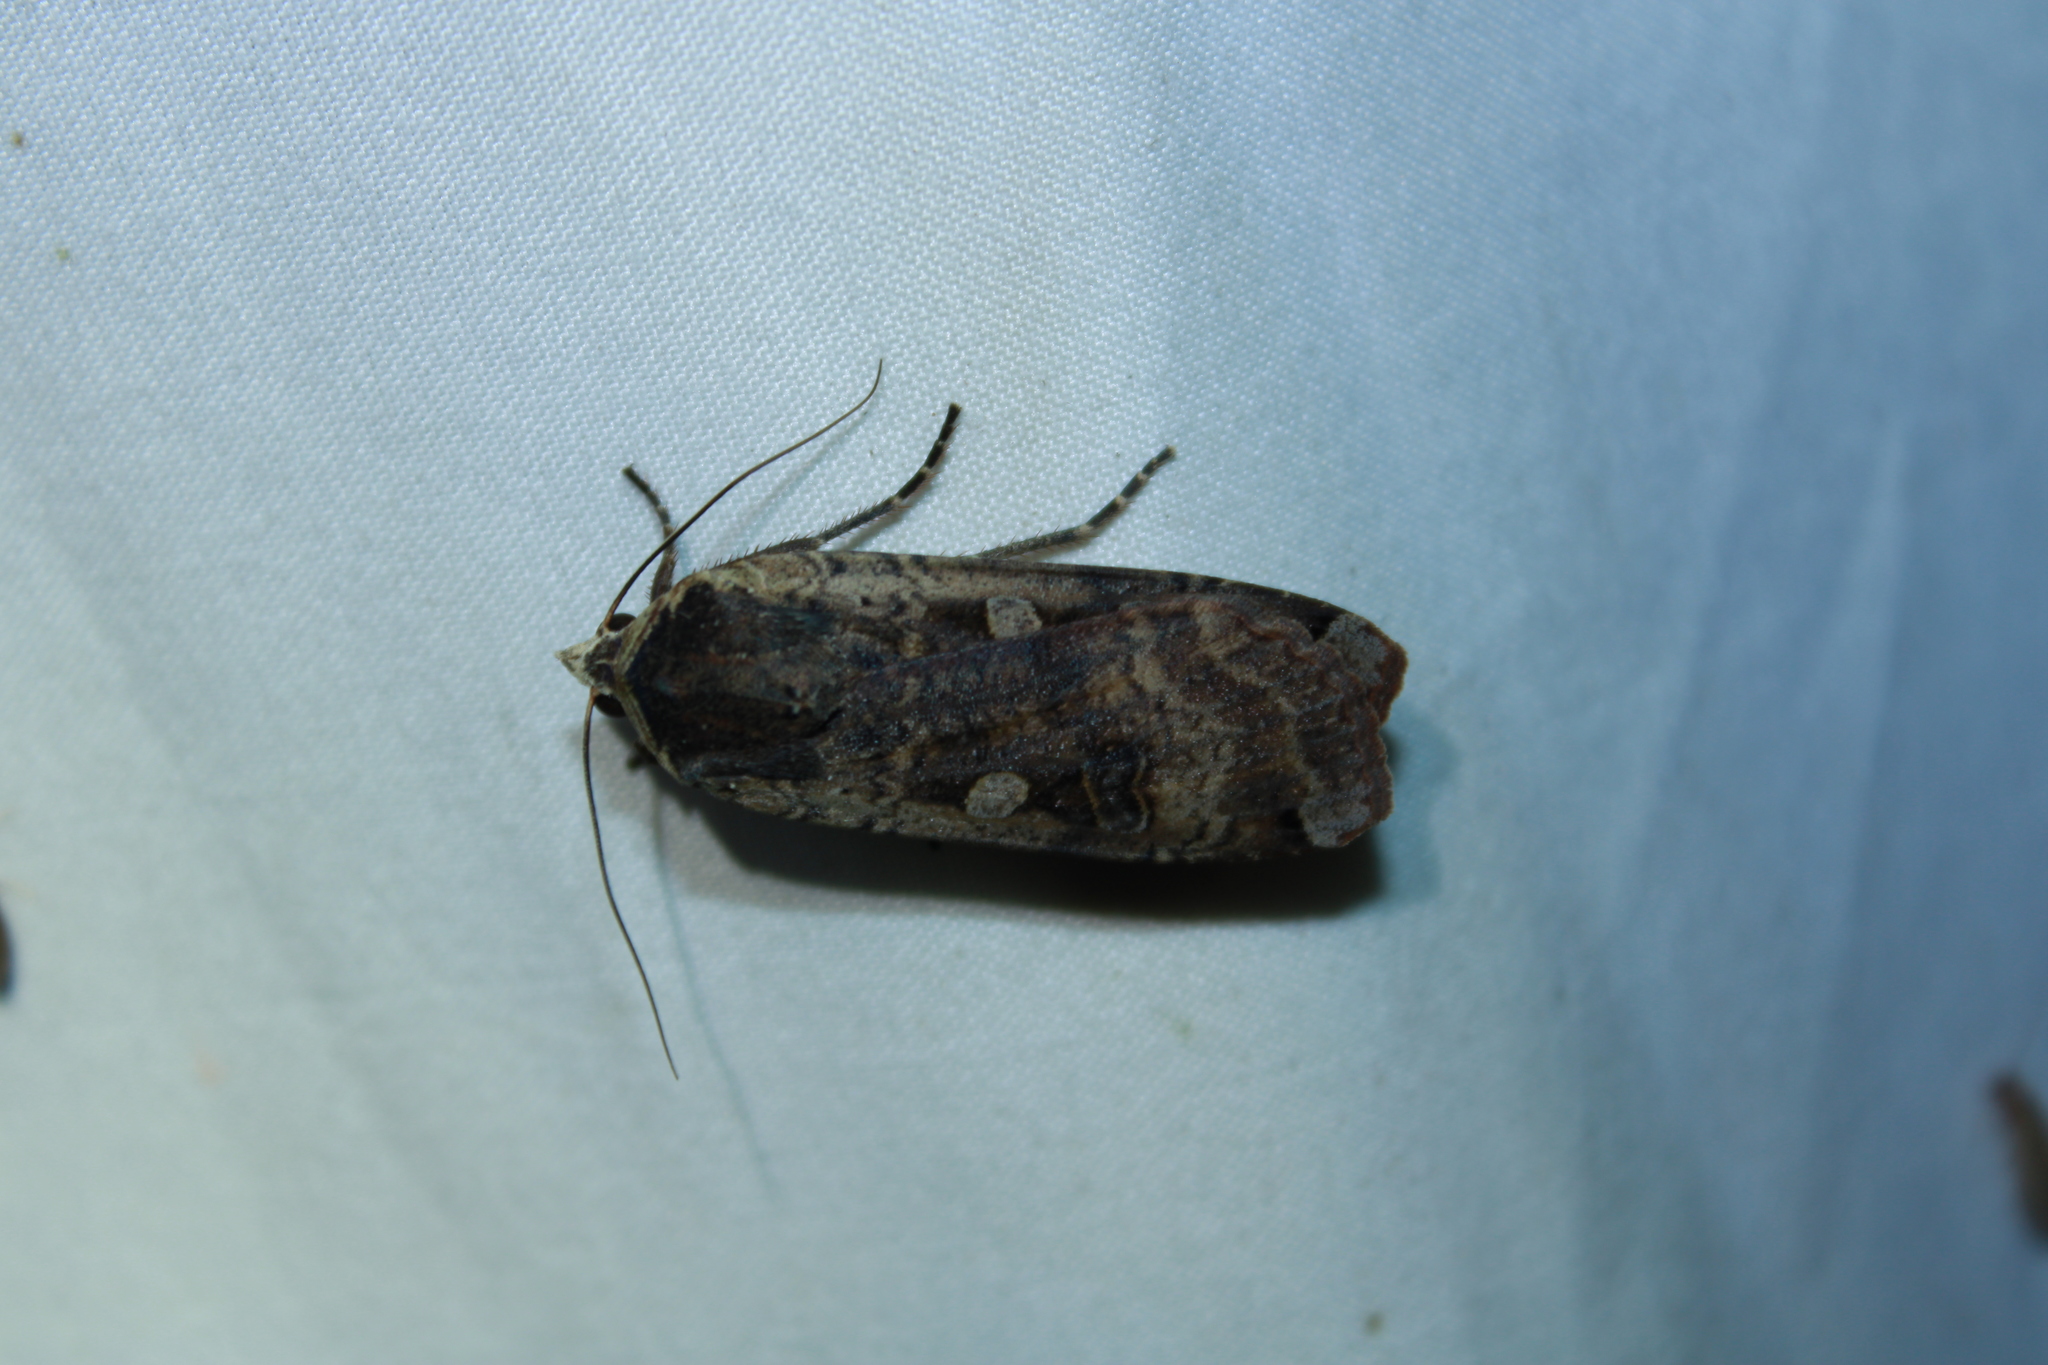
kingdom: Animalia
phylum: Arthropoda
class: Insecta
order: Lepidoptera
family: Noctuidae
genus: Noctua
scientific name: Noctua pronuba
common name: Large yellow underwing
